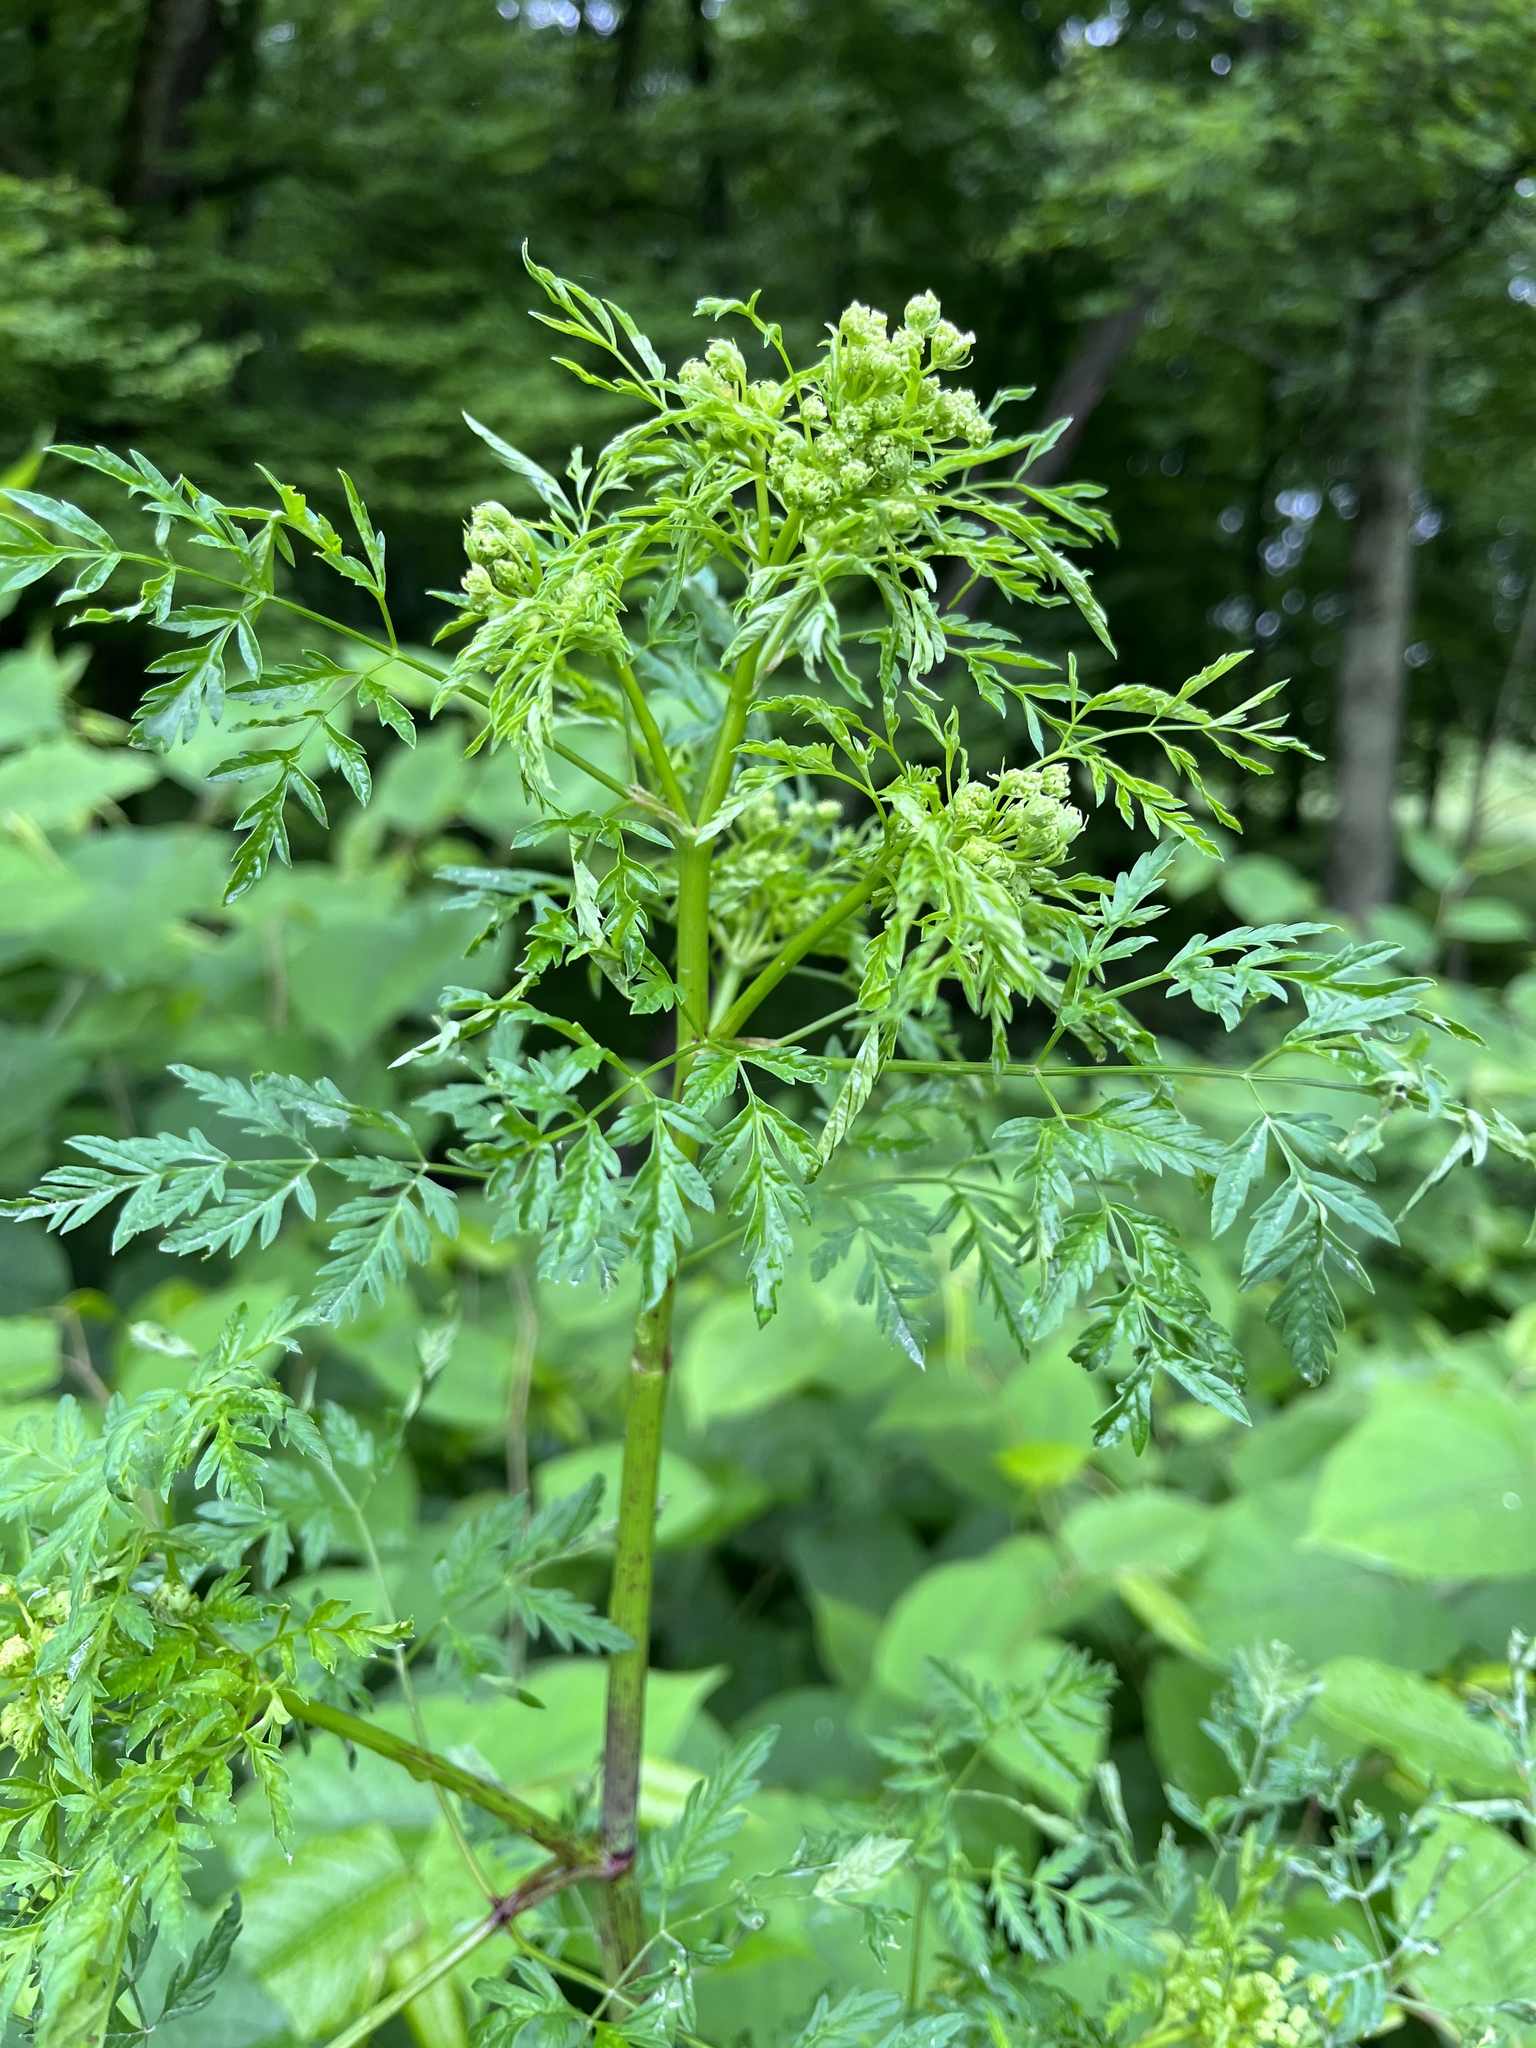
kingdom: Plantae
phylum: Tracheophyta
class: Magnoliopsida
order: Apiales
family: Apiaceae
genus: Conium
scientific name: Conium maculatum
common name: Hemlock
